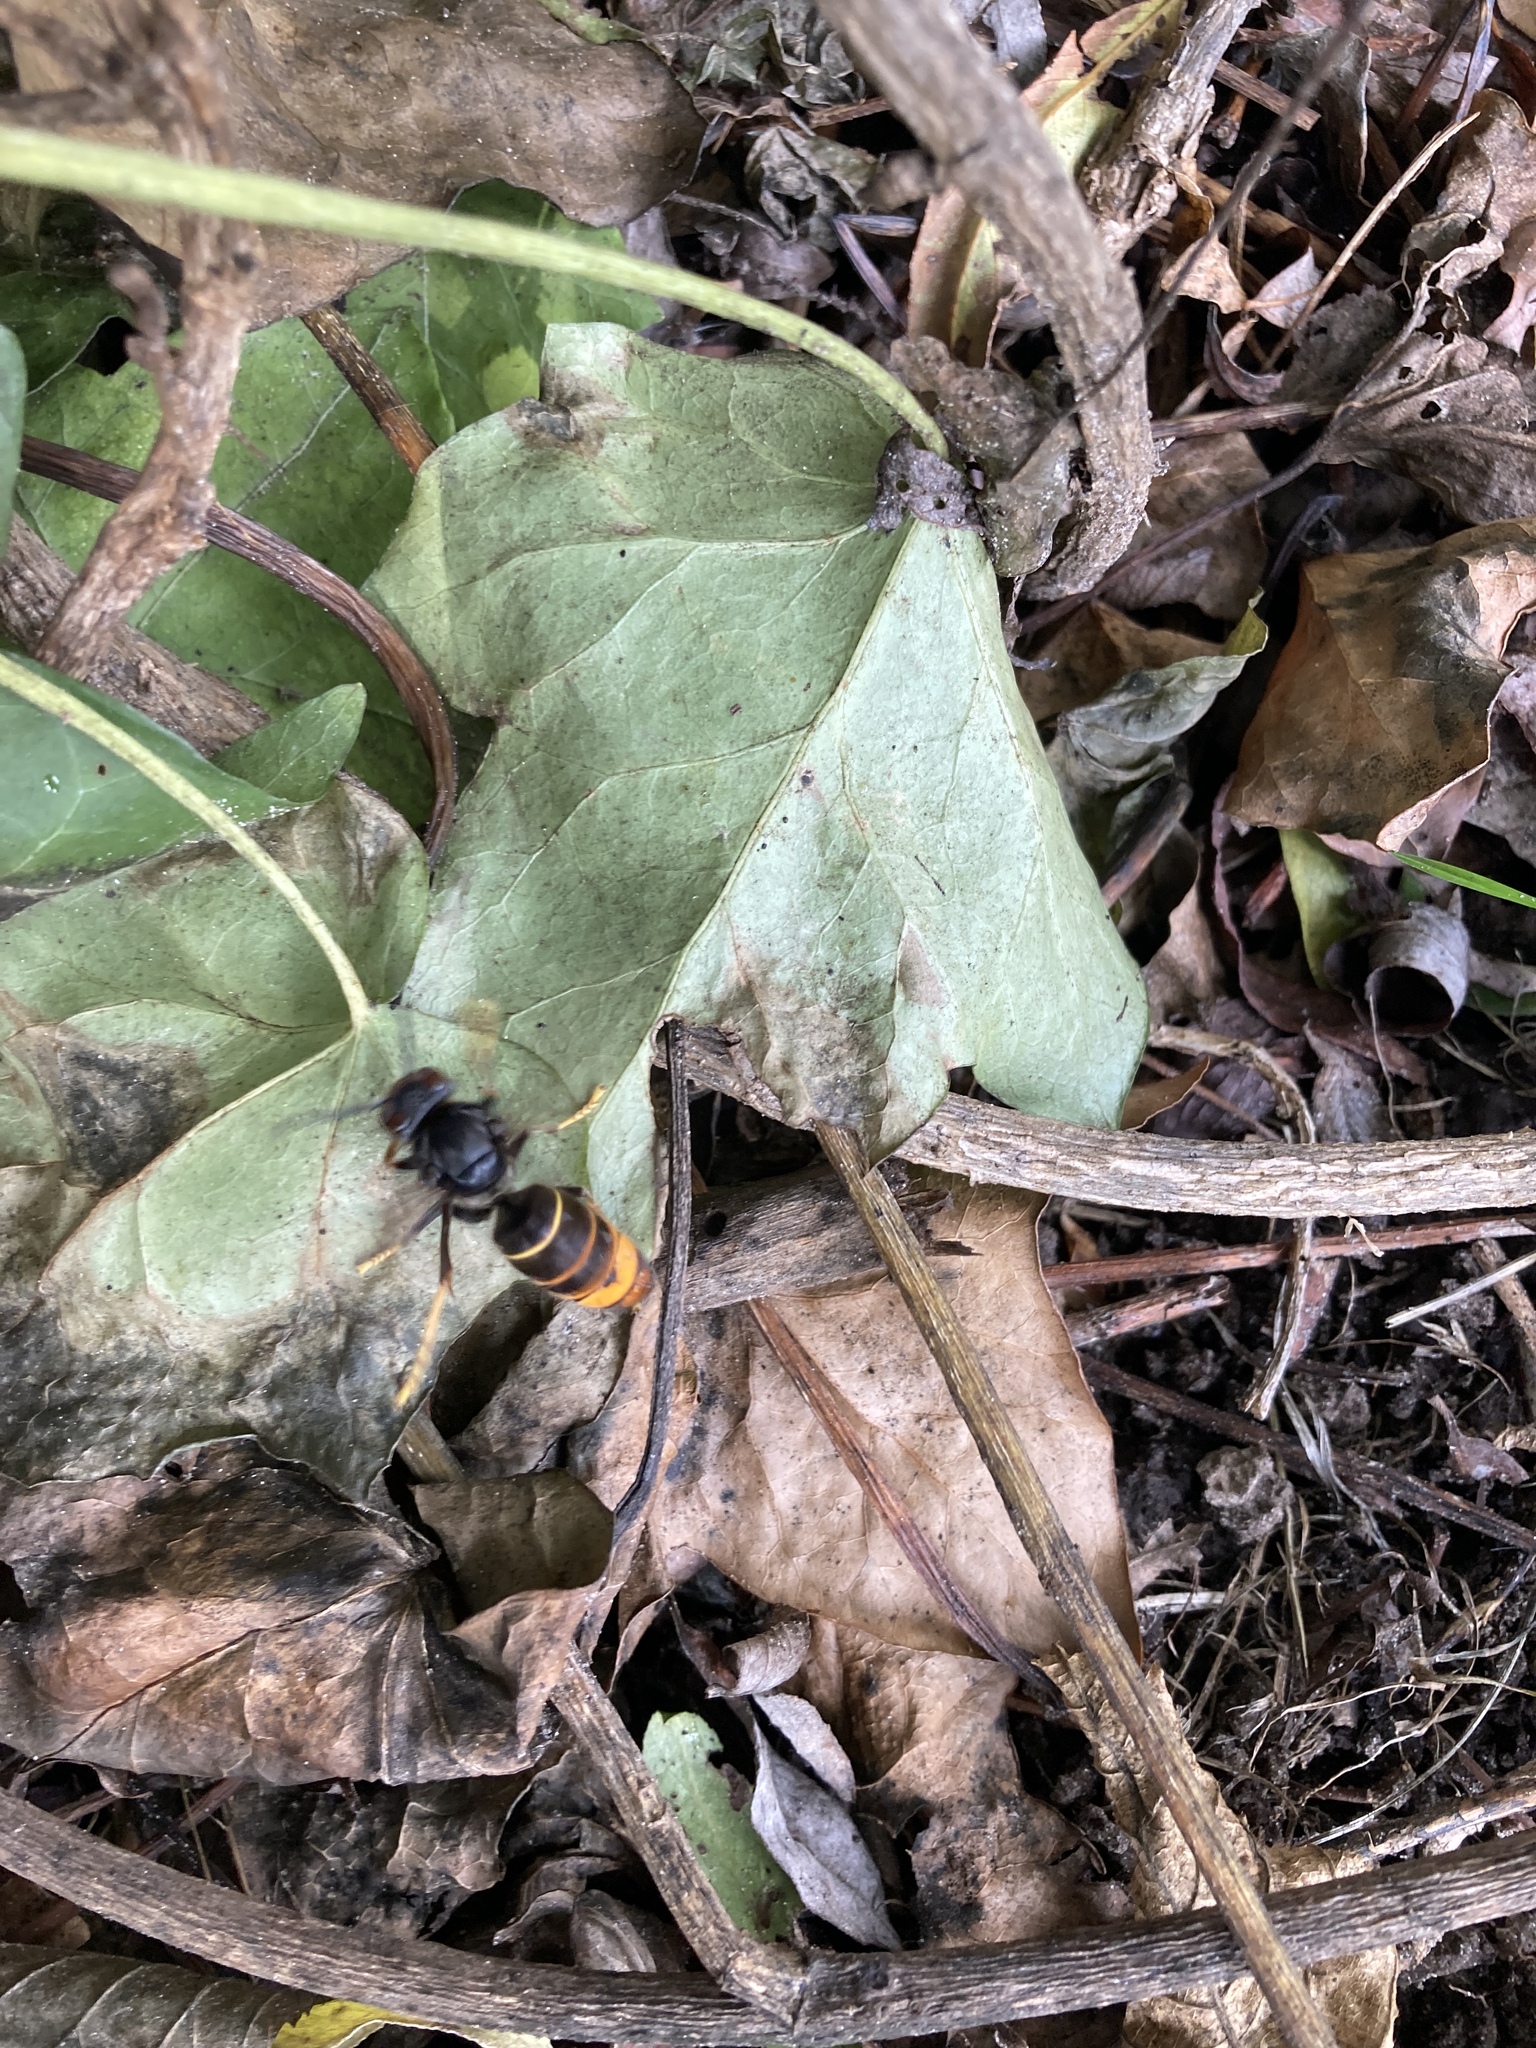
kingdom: Animalia
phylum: Arthropoda
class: Insecta
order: Hymenoptera
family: Vespidae
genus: Vespa
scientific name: Vespa velutina
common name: Asian hornet
